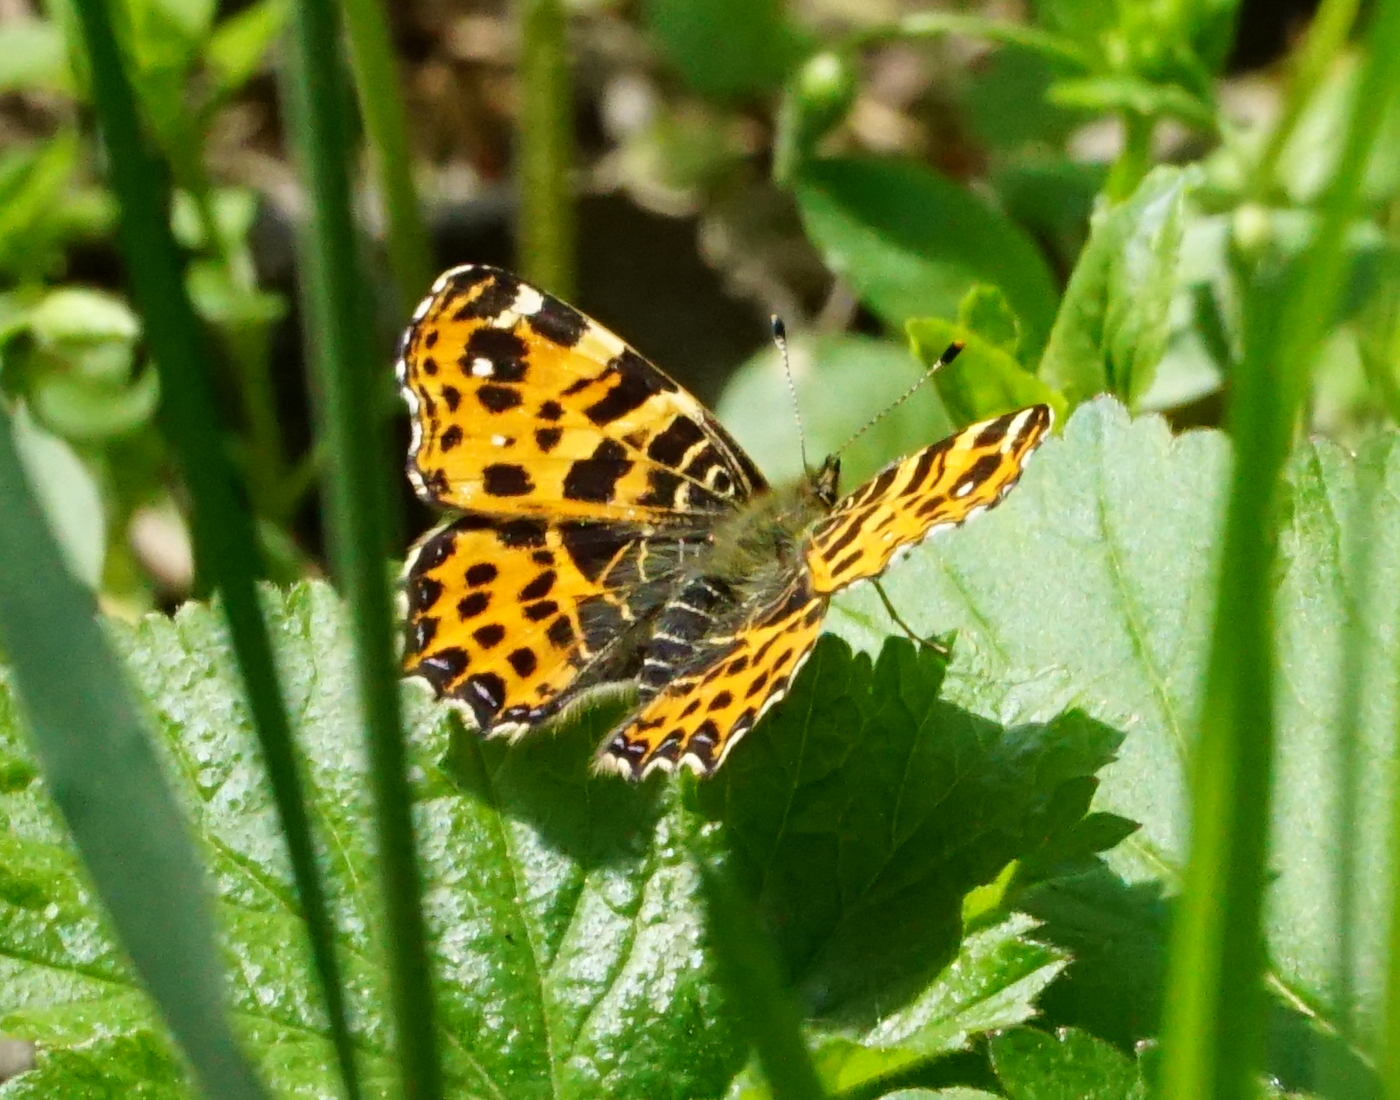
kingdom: Animalia
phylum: Arthropoda
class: Insecta
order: Lepidoptera
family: Nymphalidae
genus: Araschnia
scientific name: Araschnia levana
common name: Map butterfly
